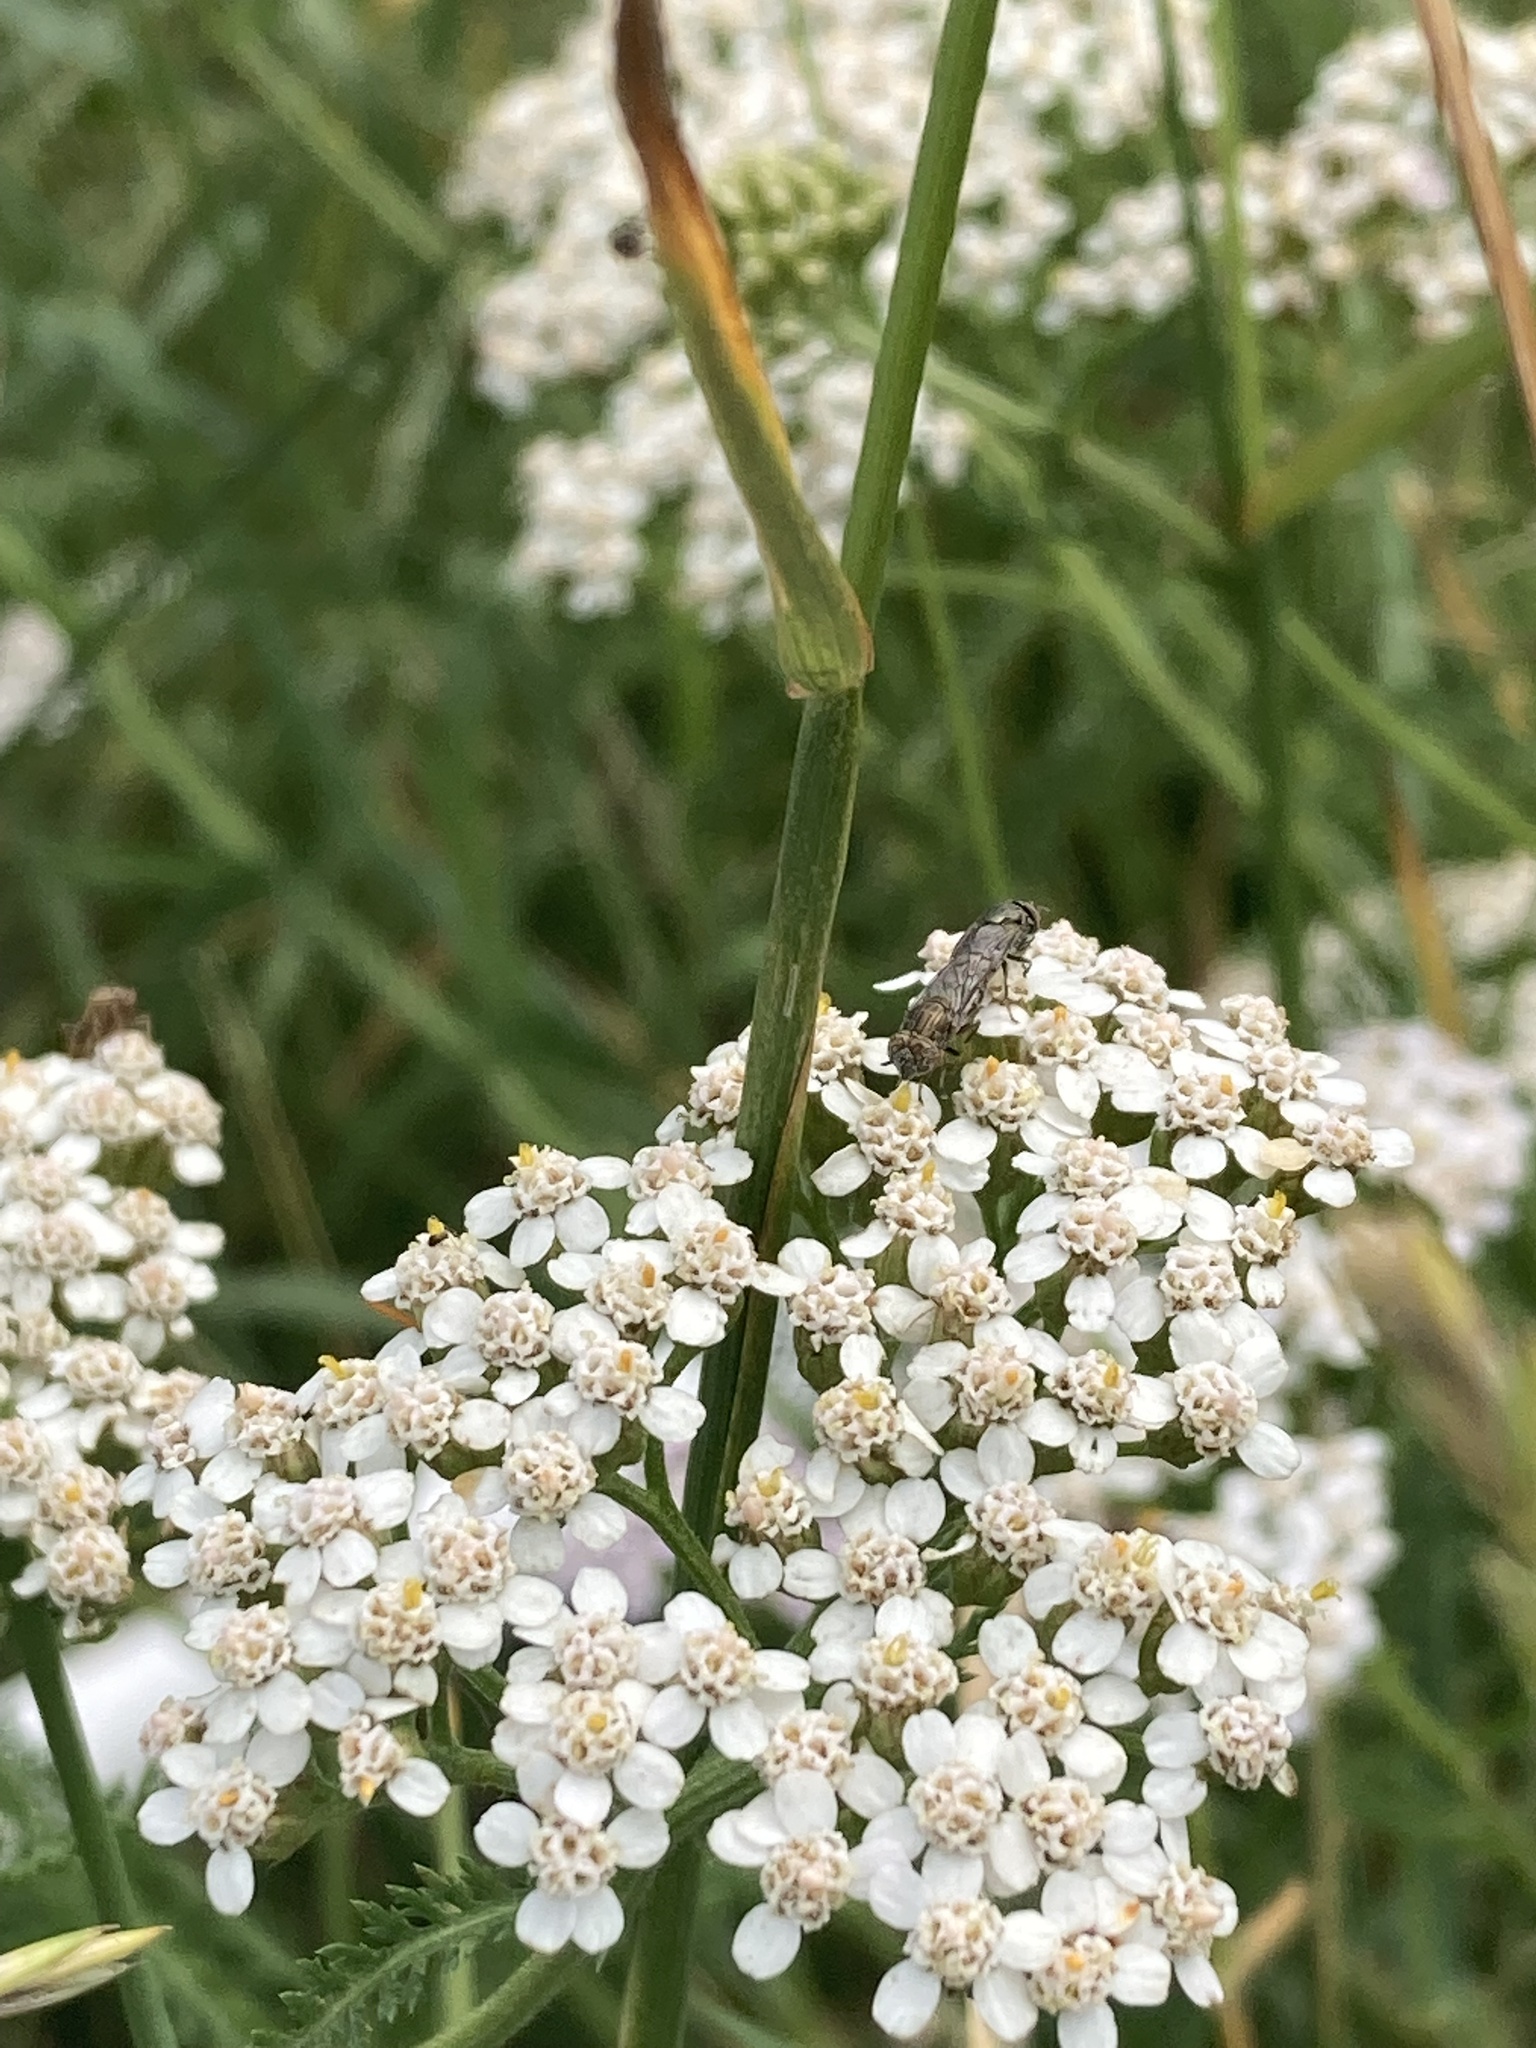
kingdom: Animalia
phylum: Arthropoda
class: Insecta
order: Diptera
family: Syrphidae
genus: Orthonevra
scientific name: Orthonevra nitida
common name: Wavy mucksucker
